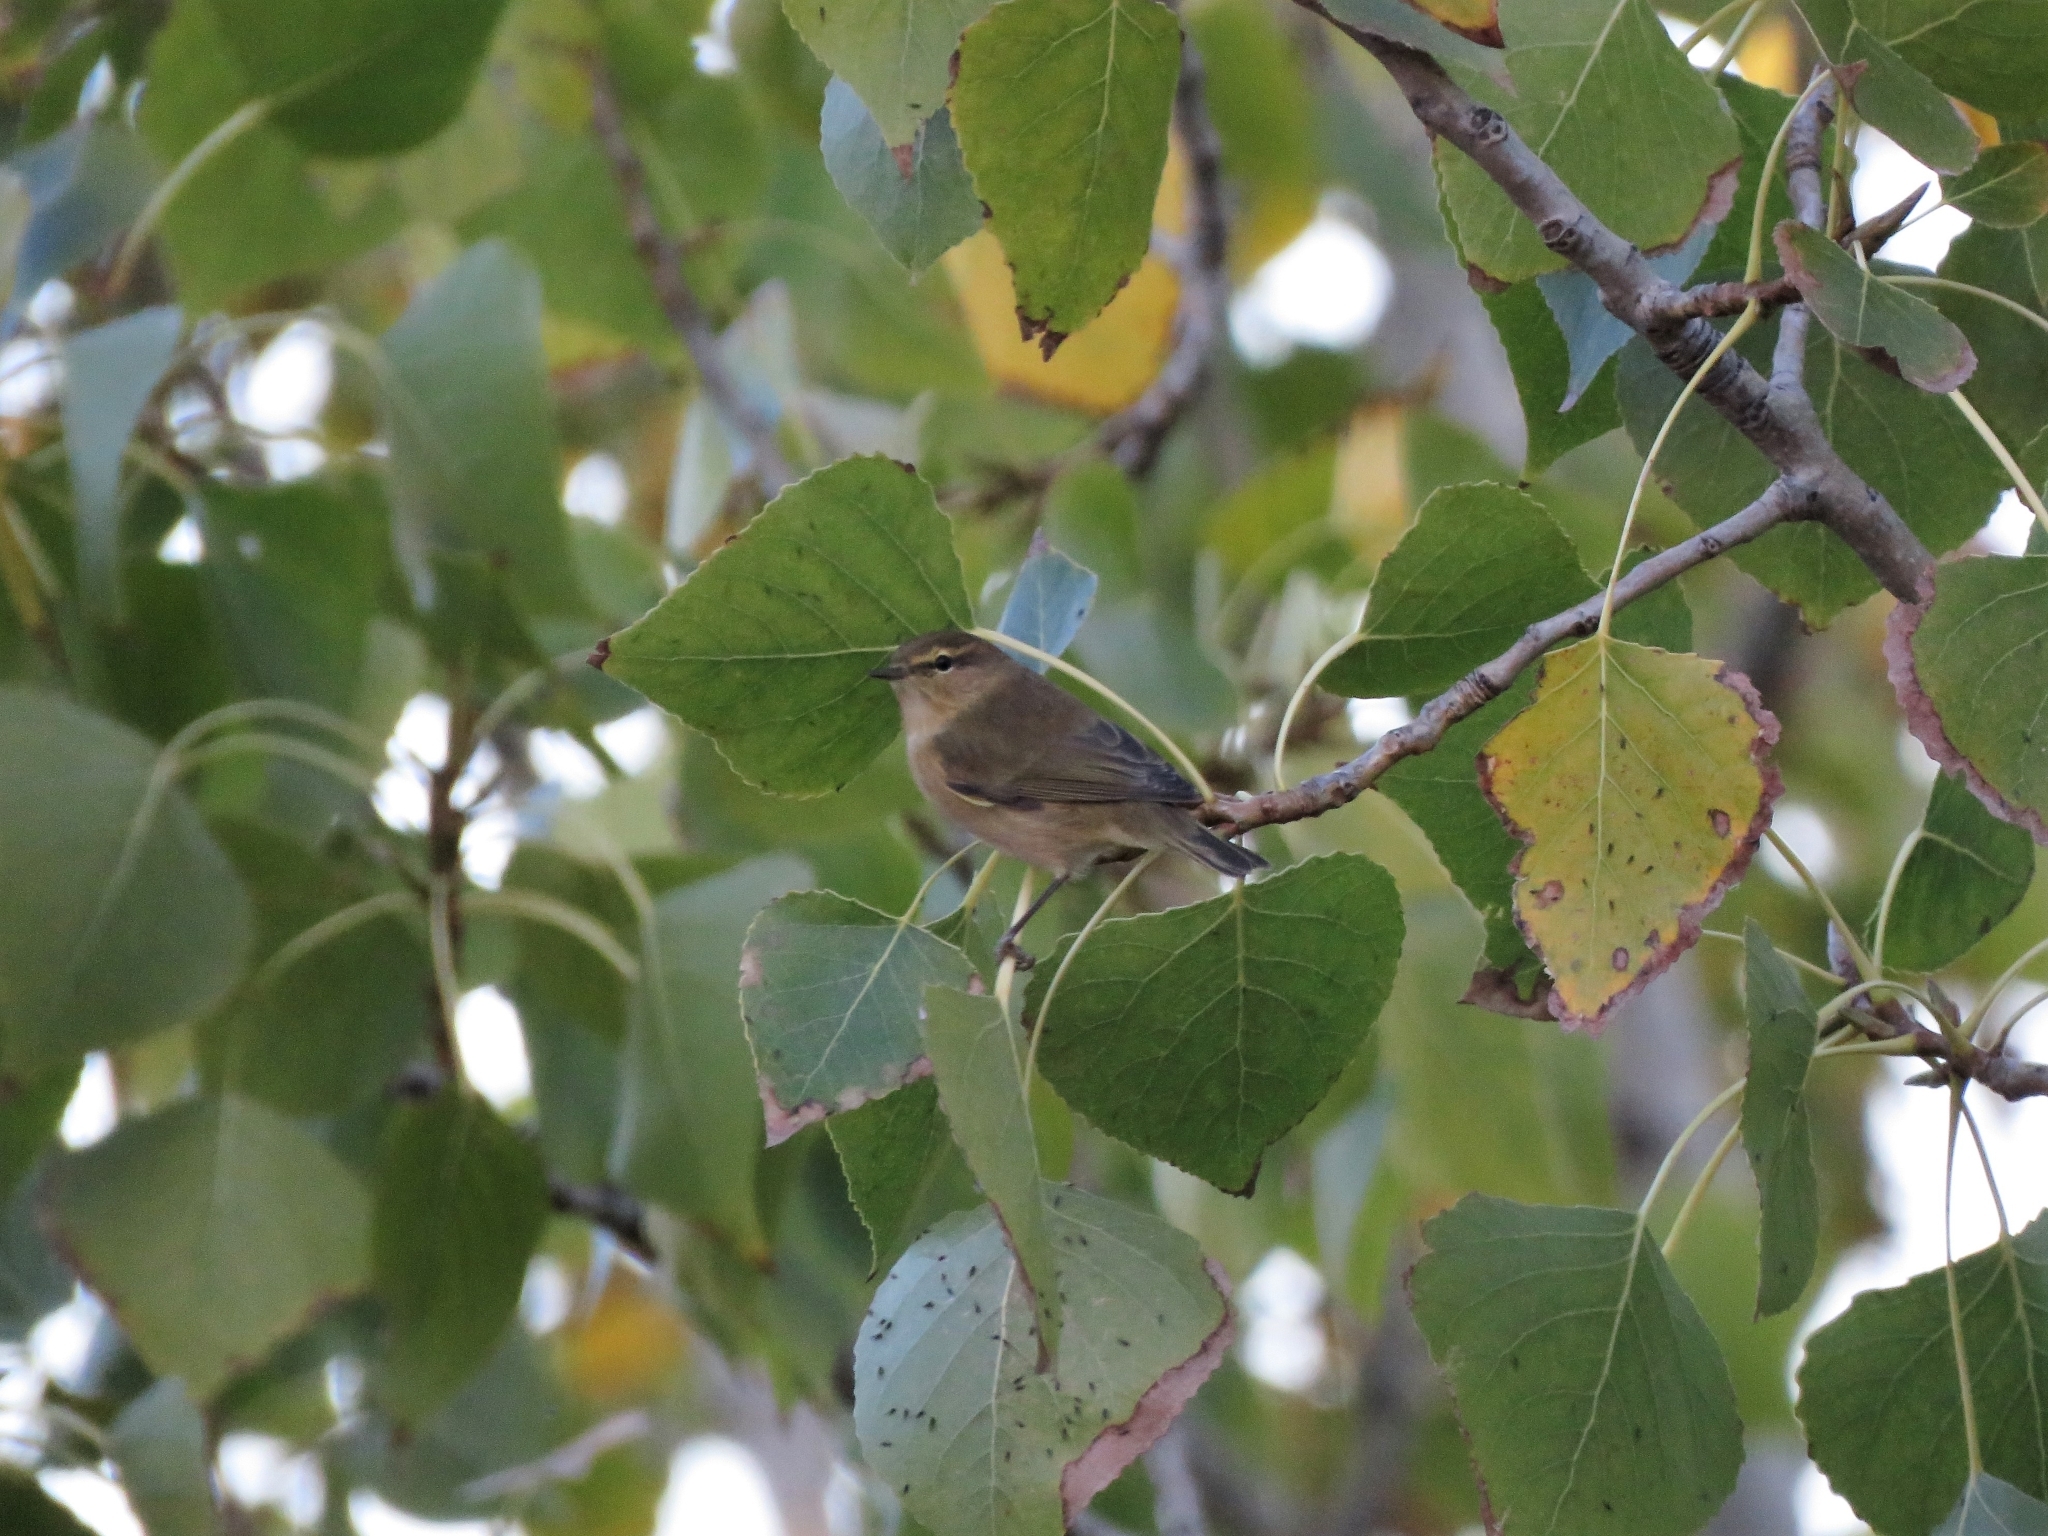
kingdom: Animalia
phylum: Chordata
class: Aves
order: Passeriformes
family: Phylloscopidae
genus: Phylloscopus
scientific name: Phylloscopus collybita
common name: Common chiffchaff
